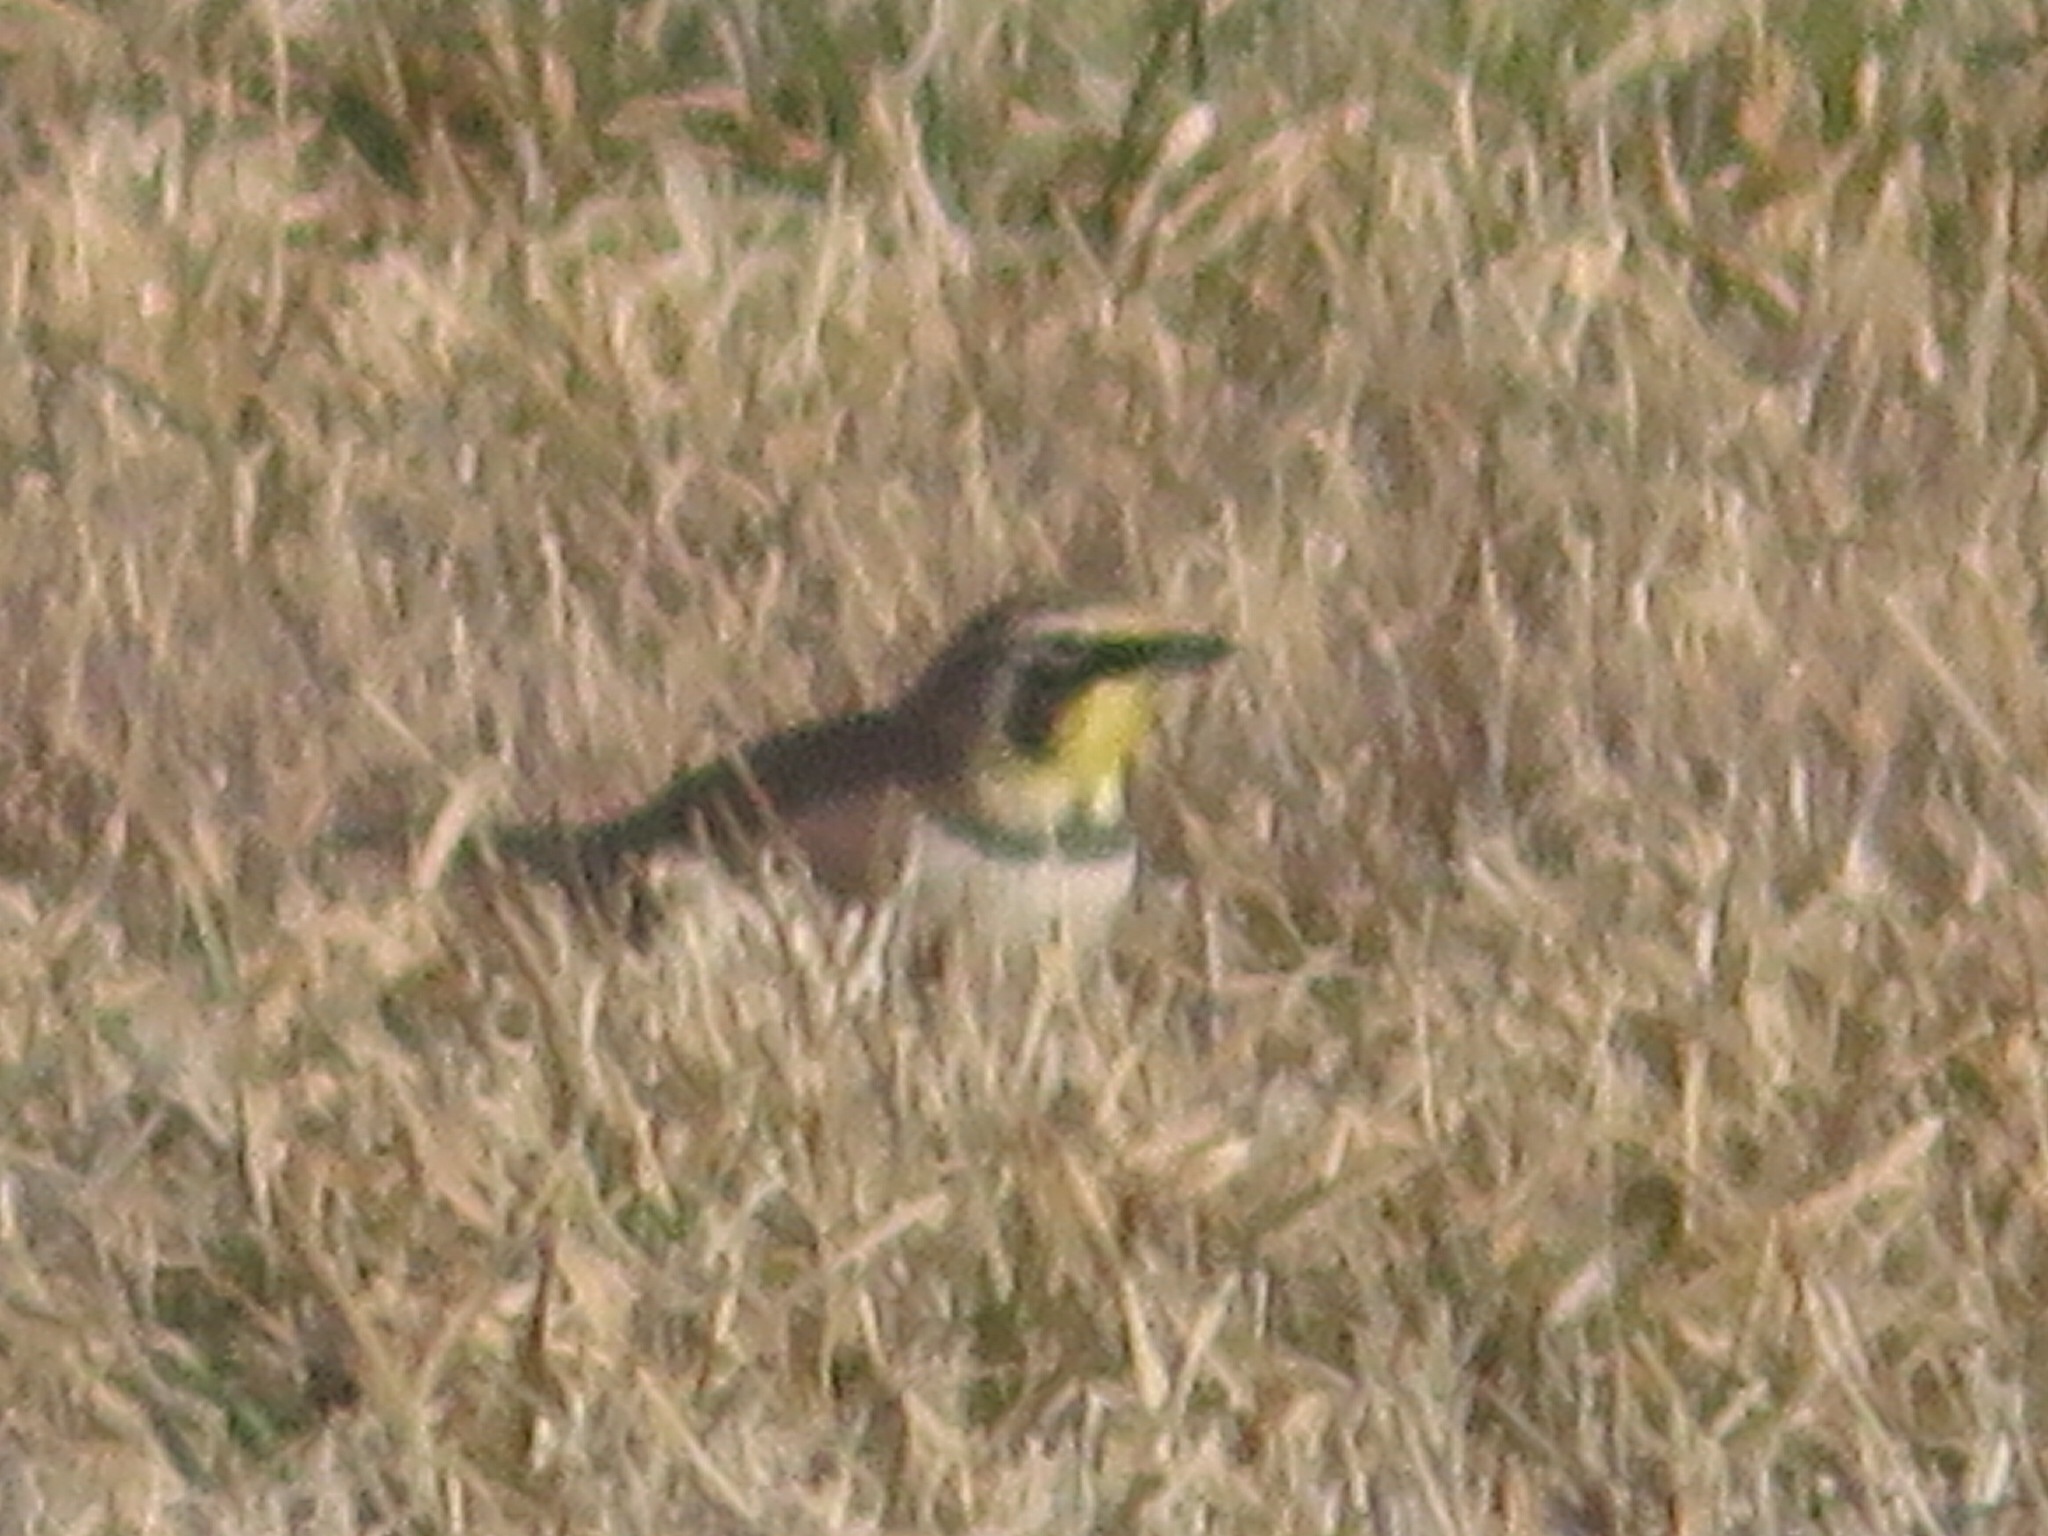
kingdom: Animalia
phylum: Chordata
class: Aves
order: Passeriformes
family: Alaudidae
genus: Eremophila
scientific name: Eremophila alpestris
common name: Horned lark
